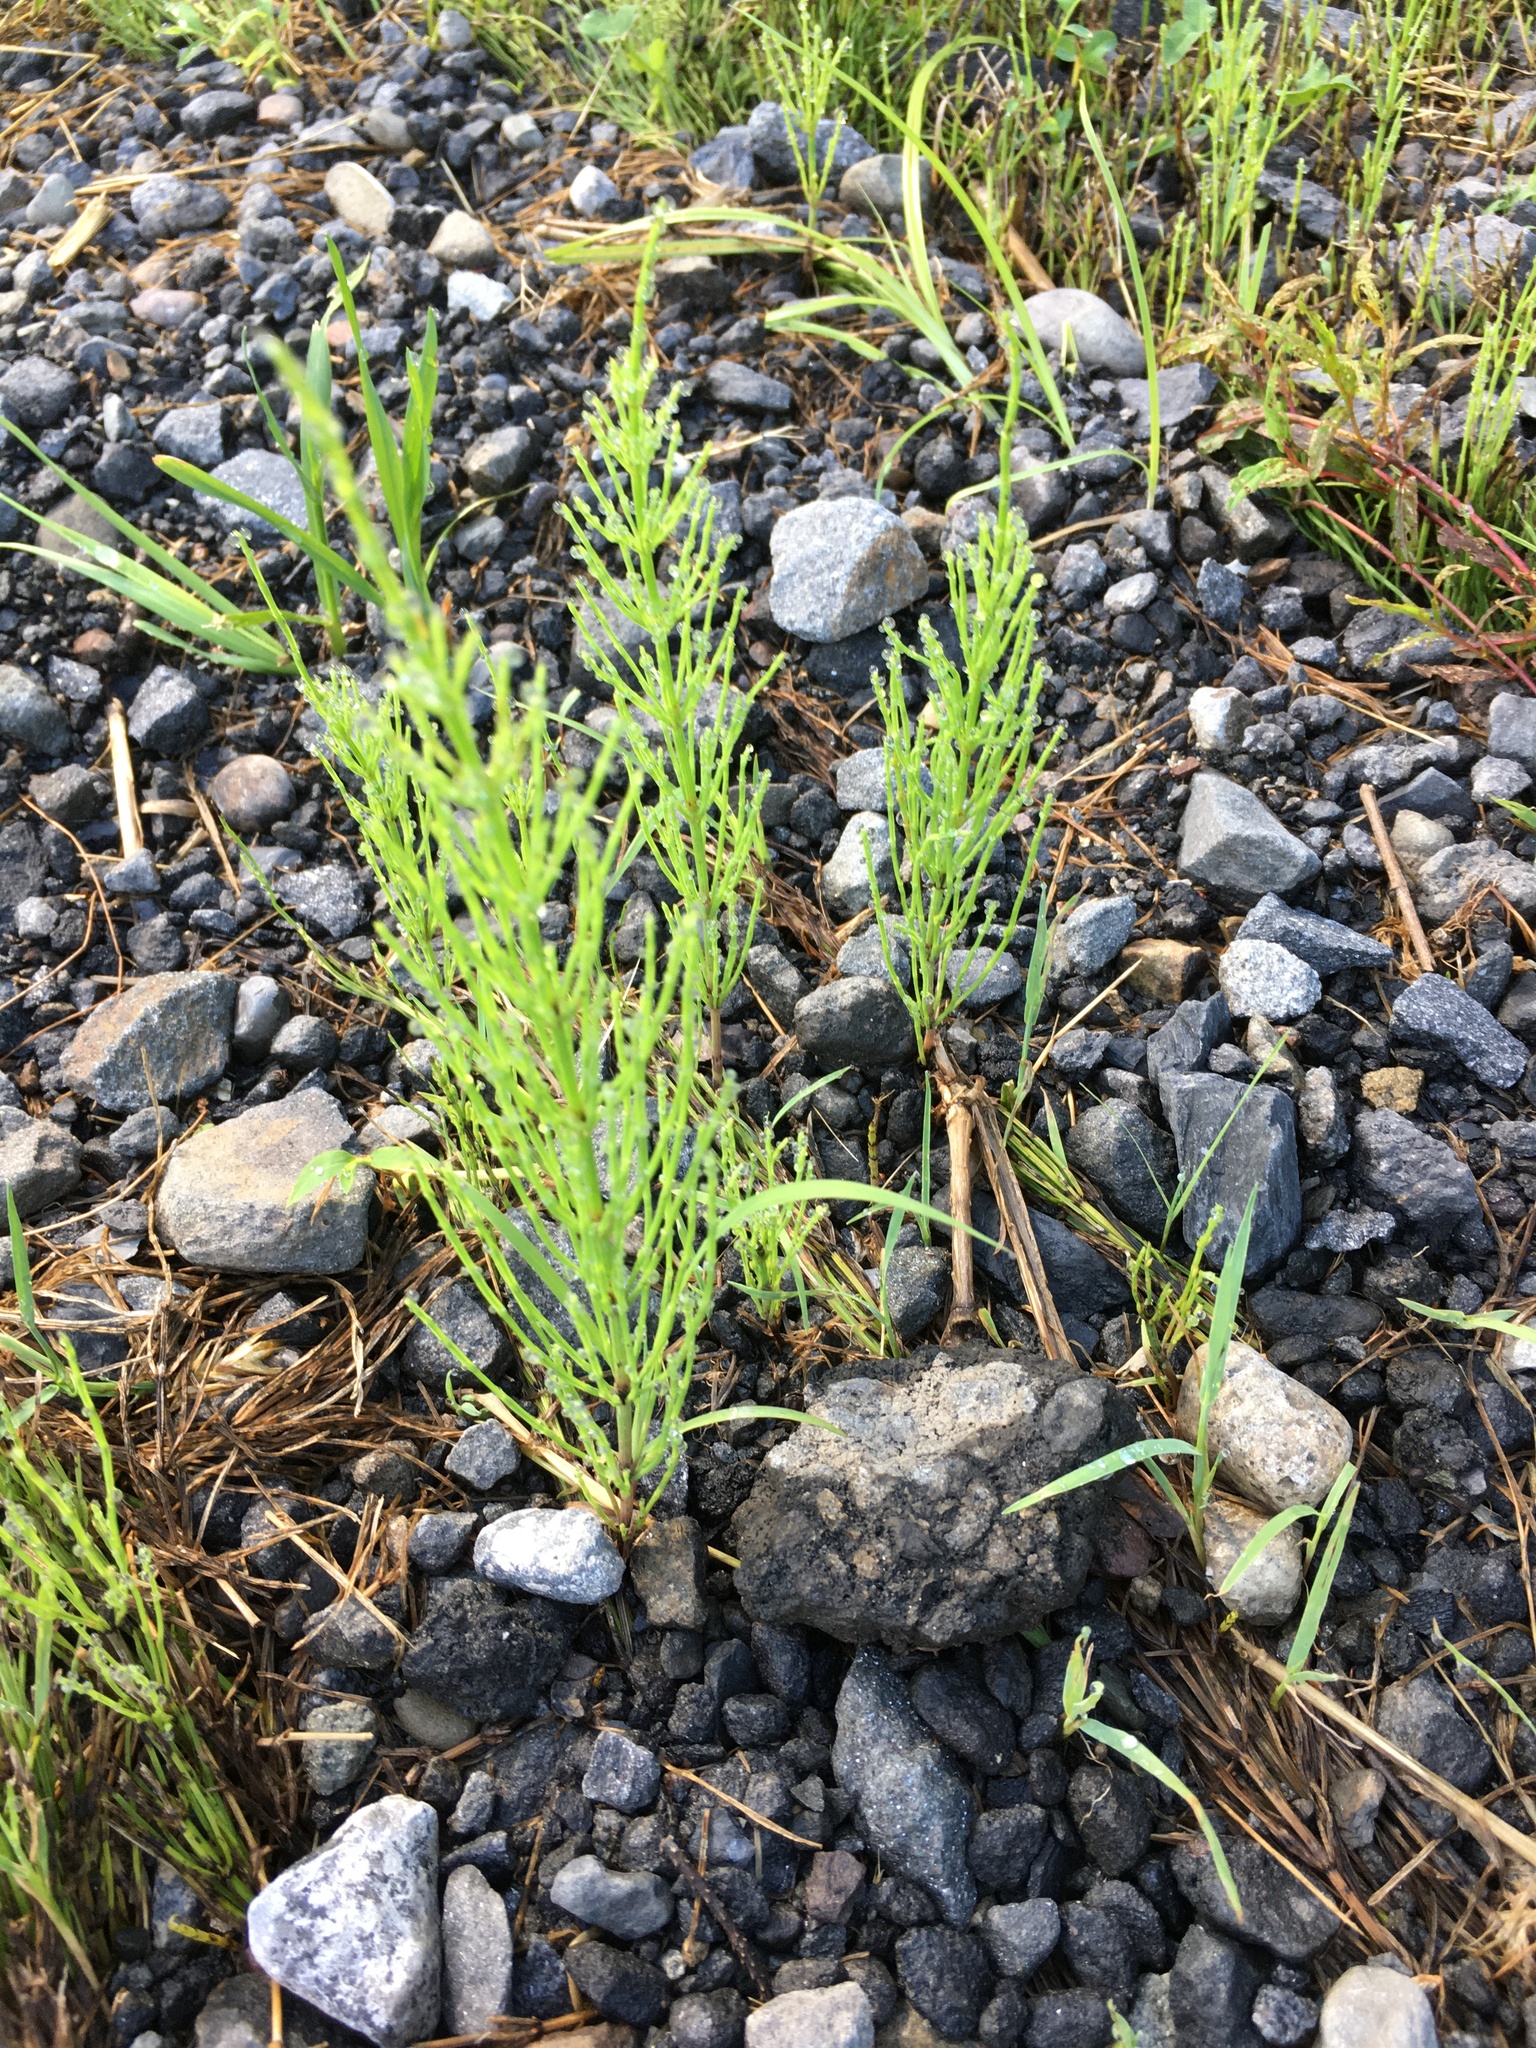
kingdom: Plantae
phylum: Tracheophyta
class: Polypodiopsida
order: Equisetales
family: Equisetaceae
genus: Equisetum
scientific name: Equisetum arvense
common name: Field horsetail
